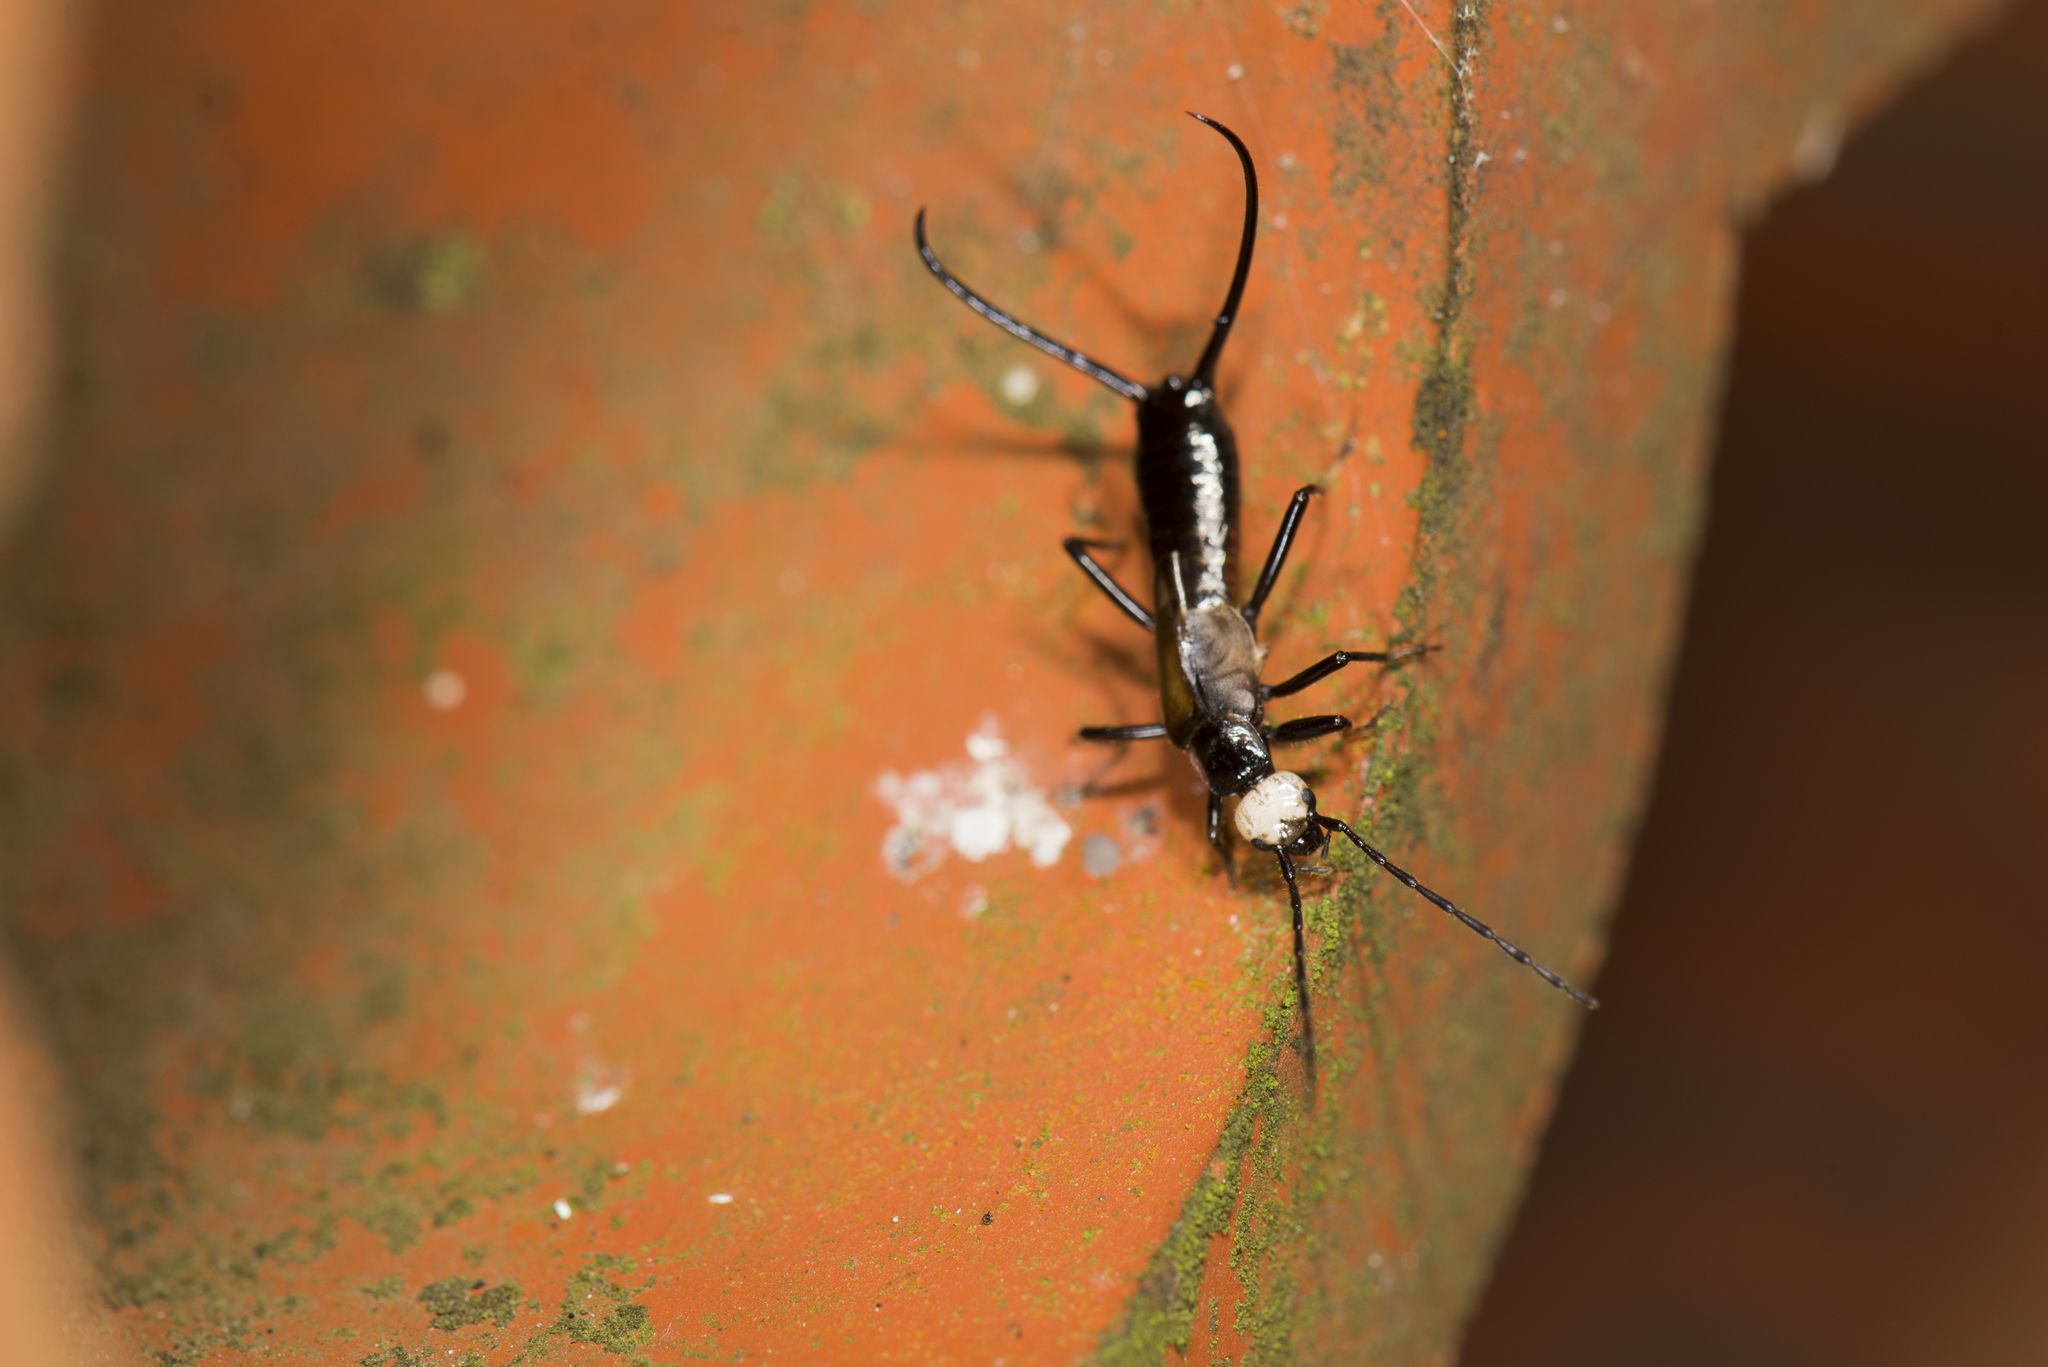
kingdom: Animalia
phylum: Arthropoda
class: Insecta
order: Dermaptera
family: Forficulidae
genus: Paratimomenus
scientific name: Paratimomenus flavocapitata
